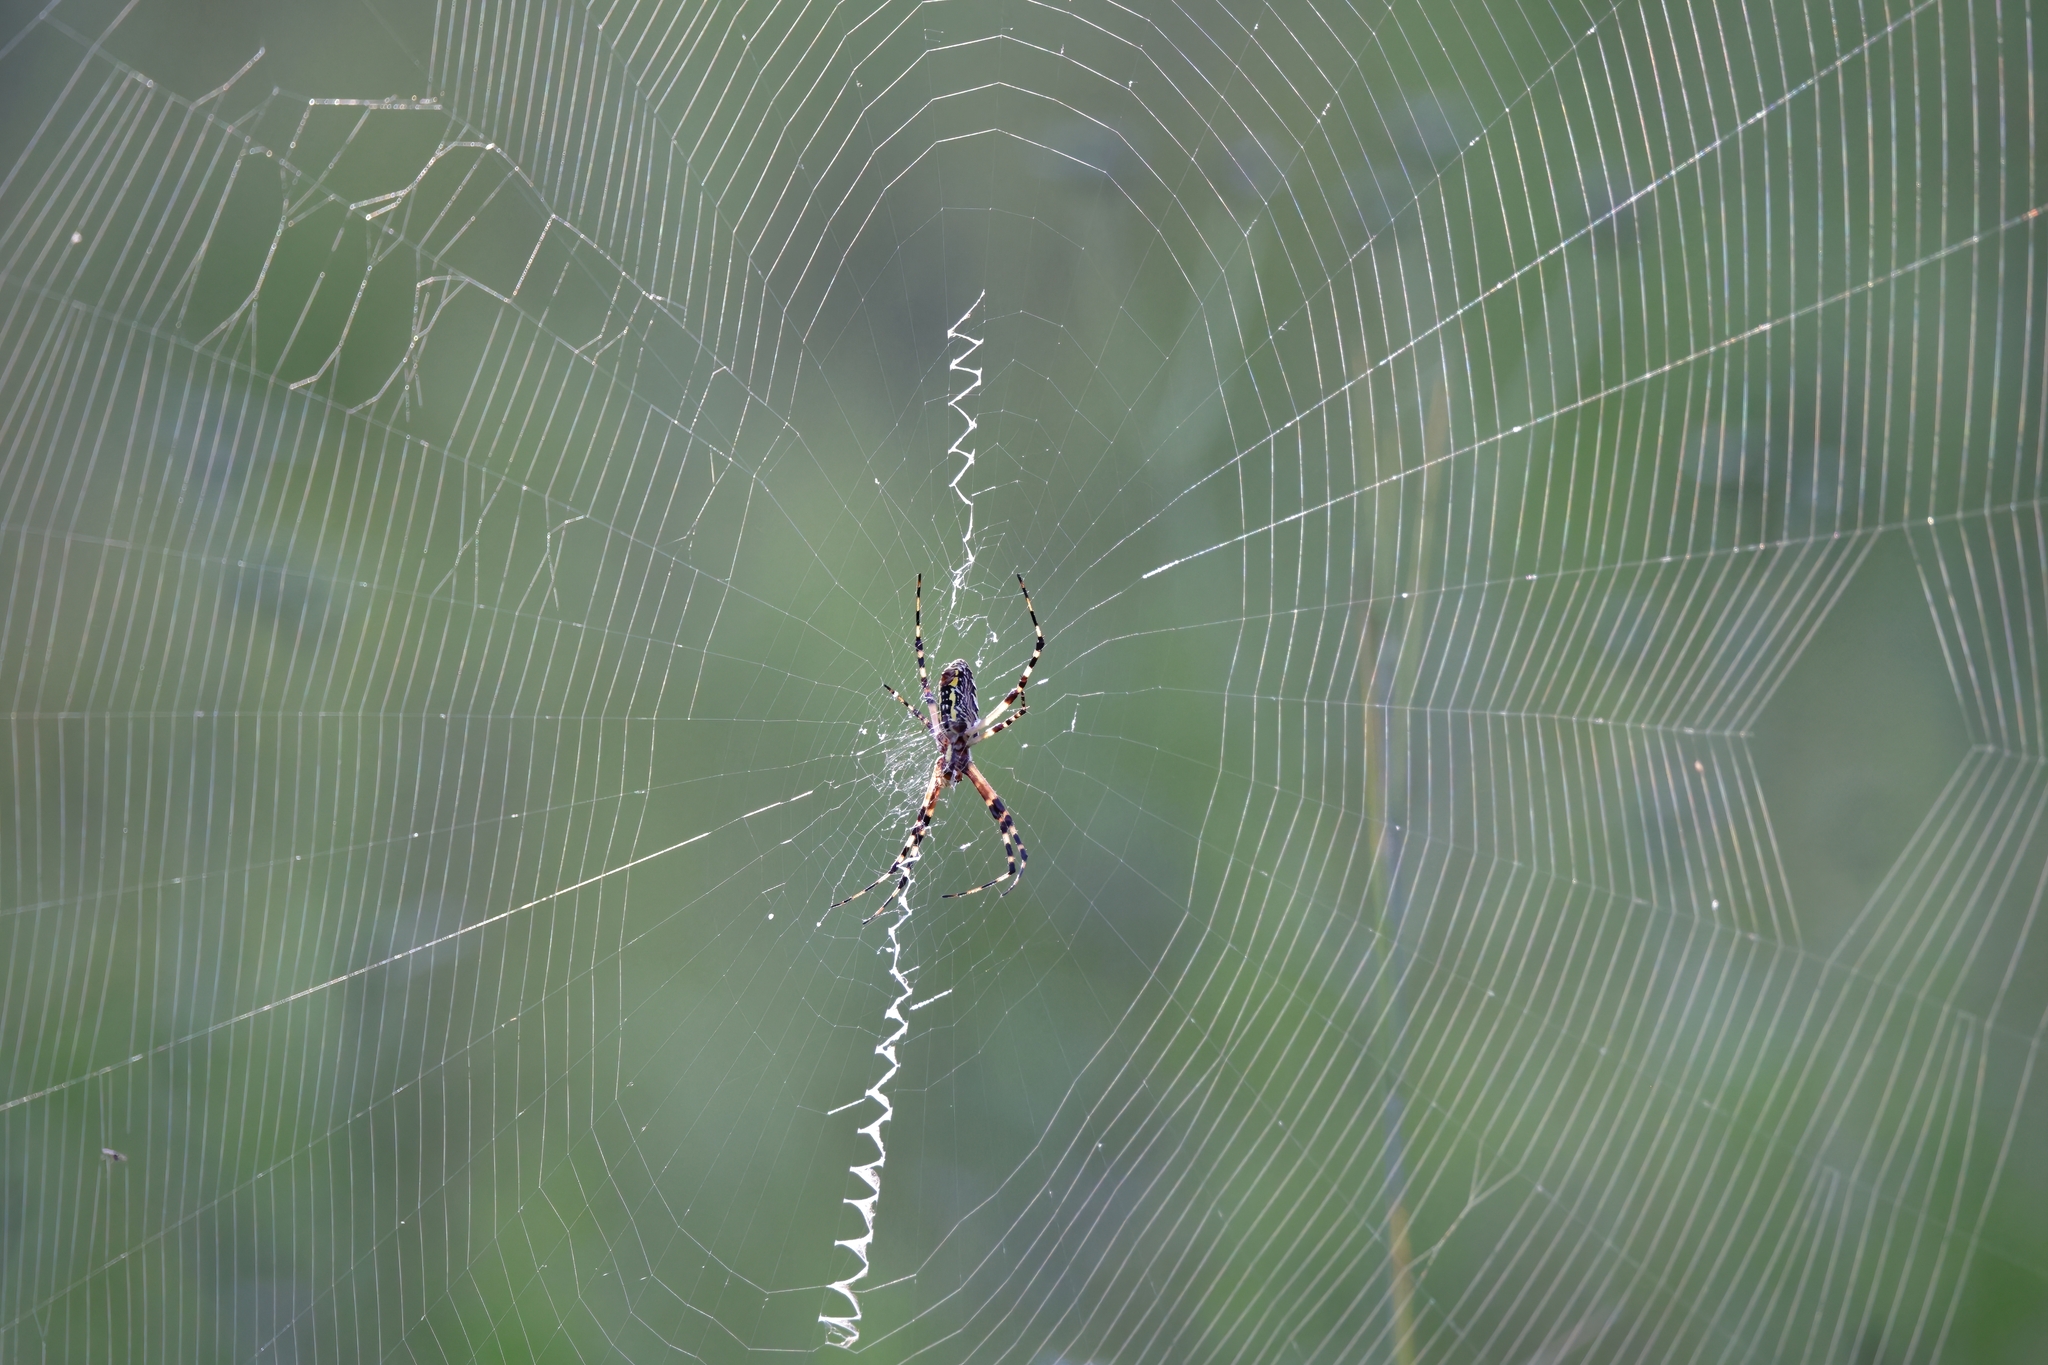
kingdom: Animalia
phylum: Arthropoda
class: Arachnida
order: Araneae
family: Araneidae
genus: Argiope
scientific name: Argiope aurantia
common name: Orb weavers
